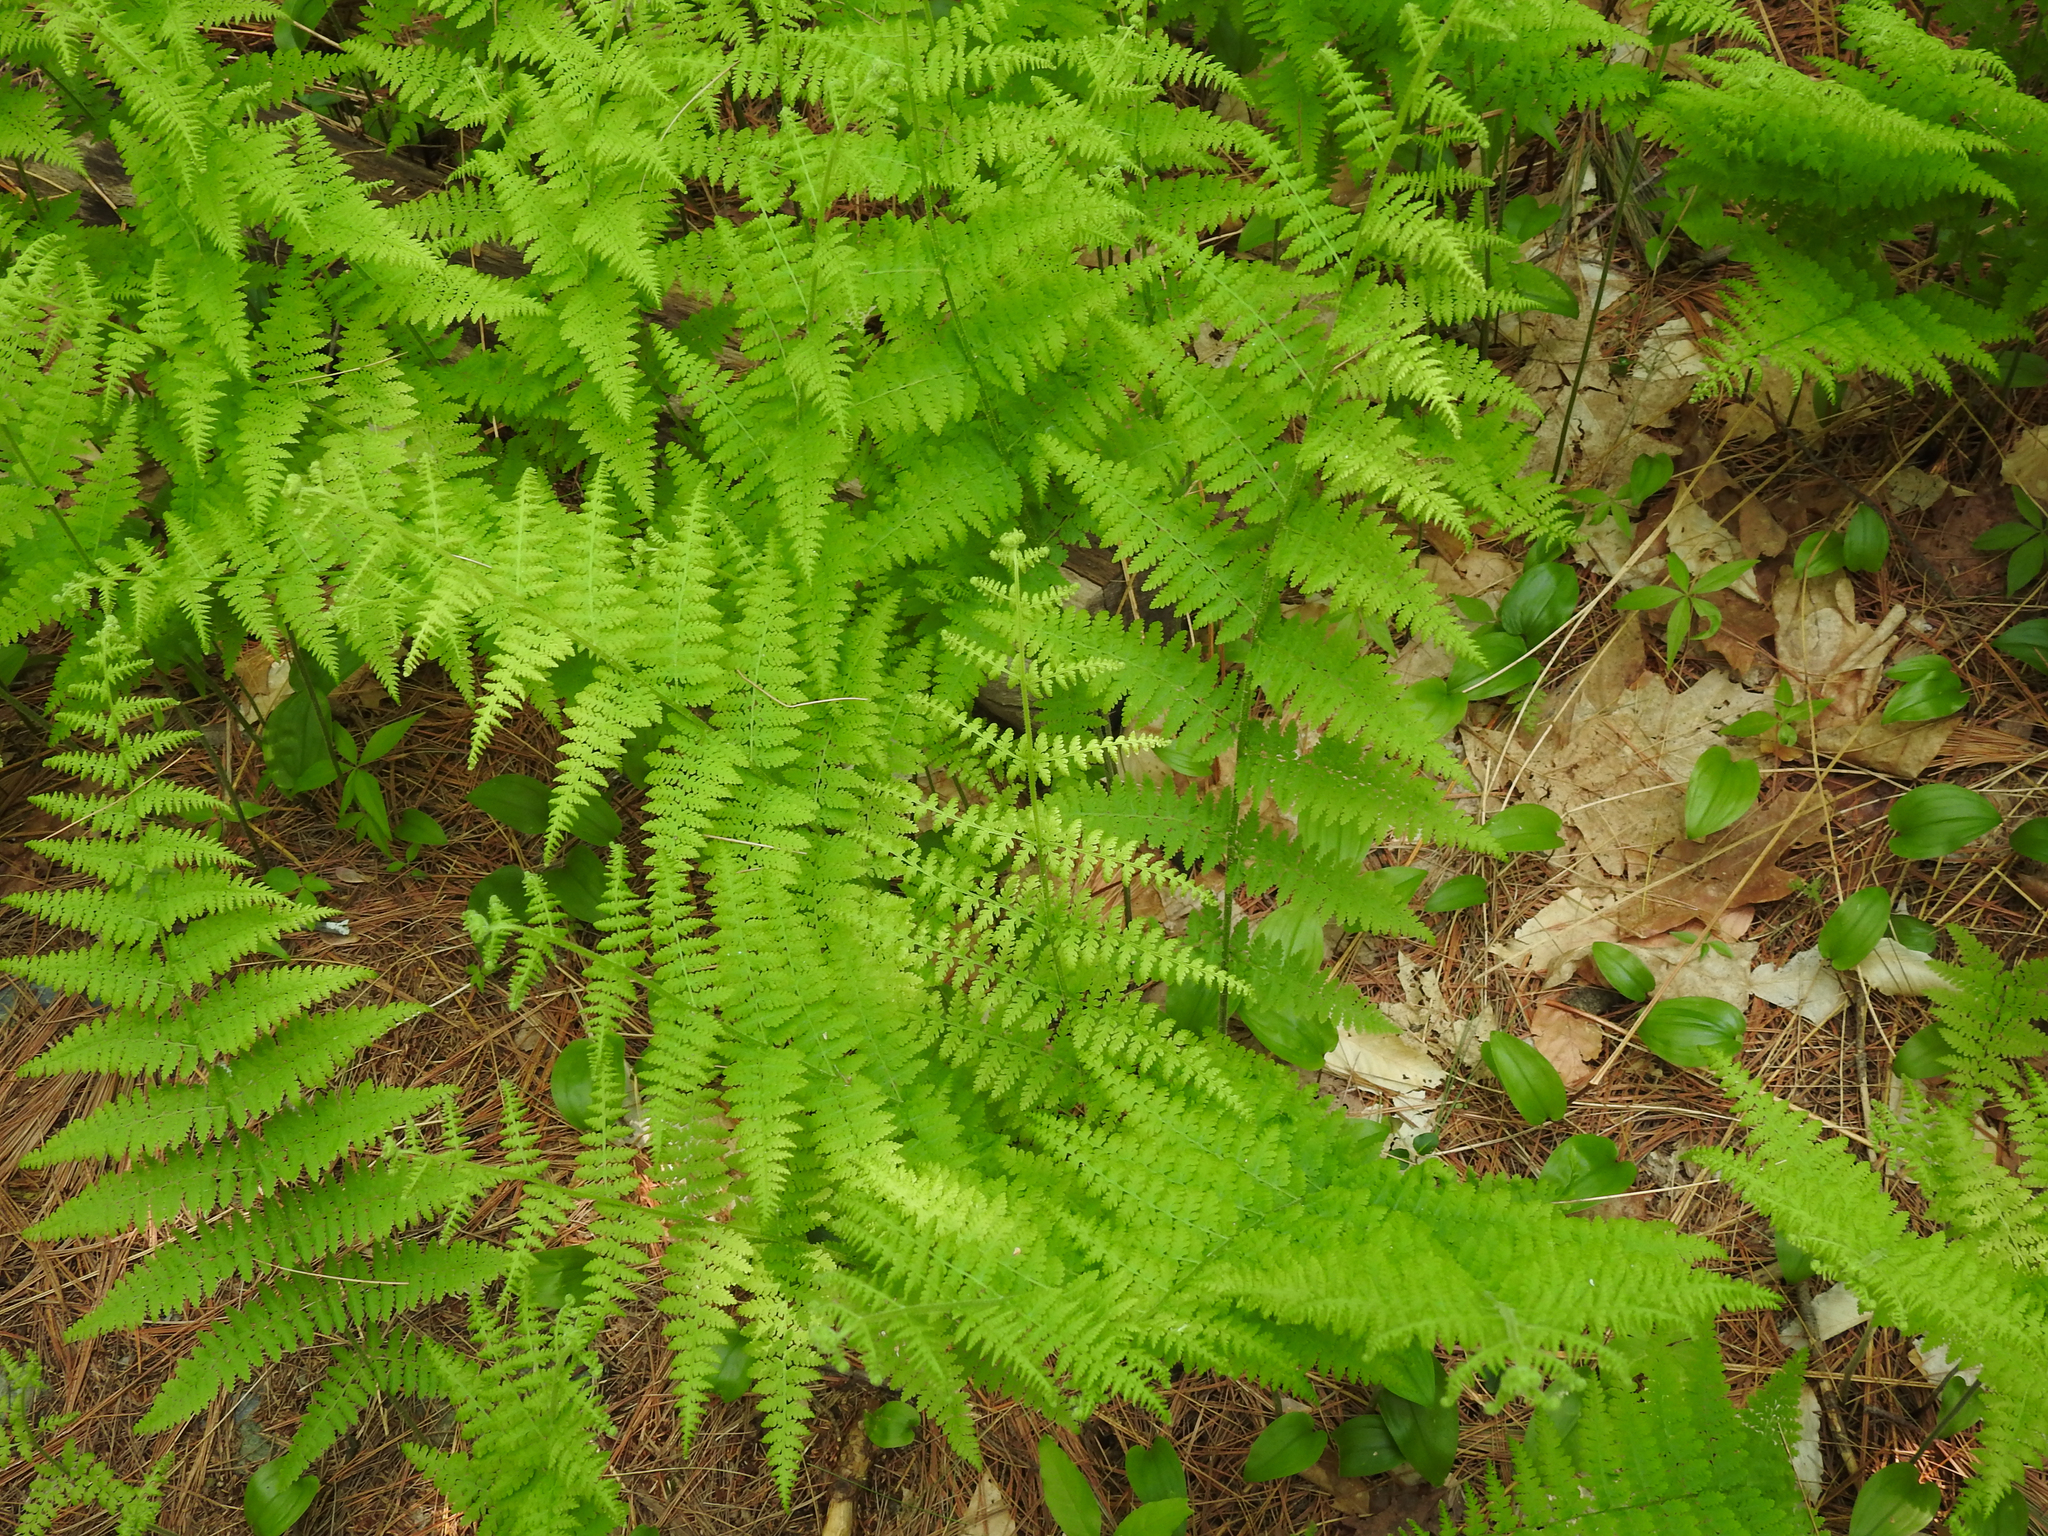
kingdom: Plantae
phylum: Tracheophyta
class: Polypodiopsida
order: Polypodiales
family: Dennstaedtiaceae
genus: Sitobolium
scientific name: Sitobolium punctilobum
